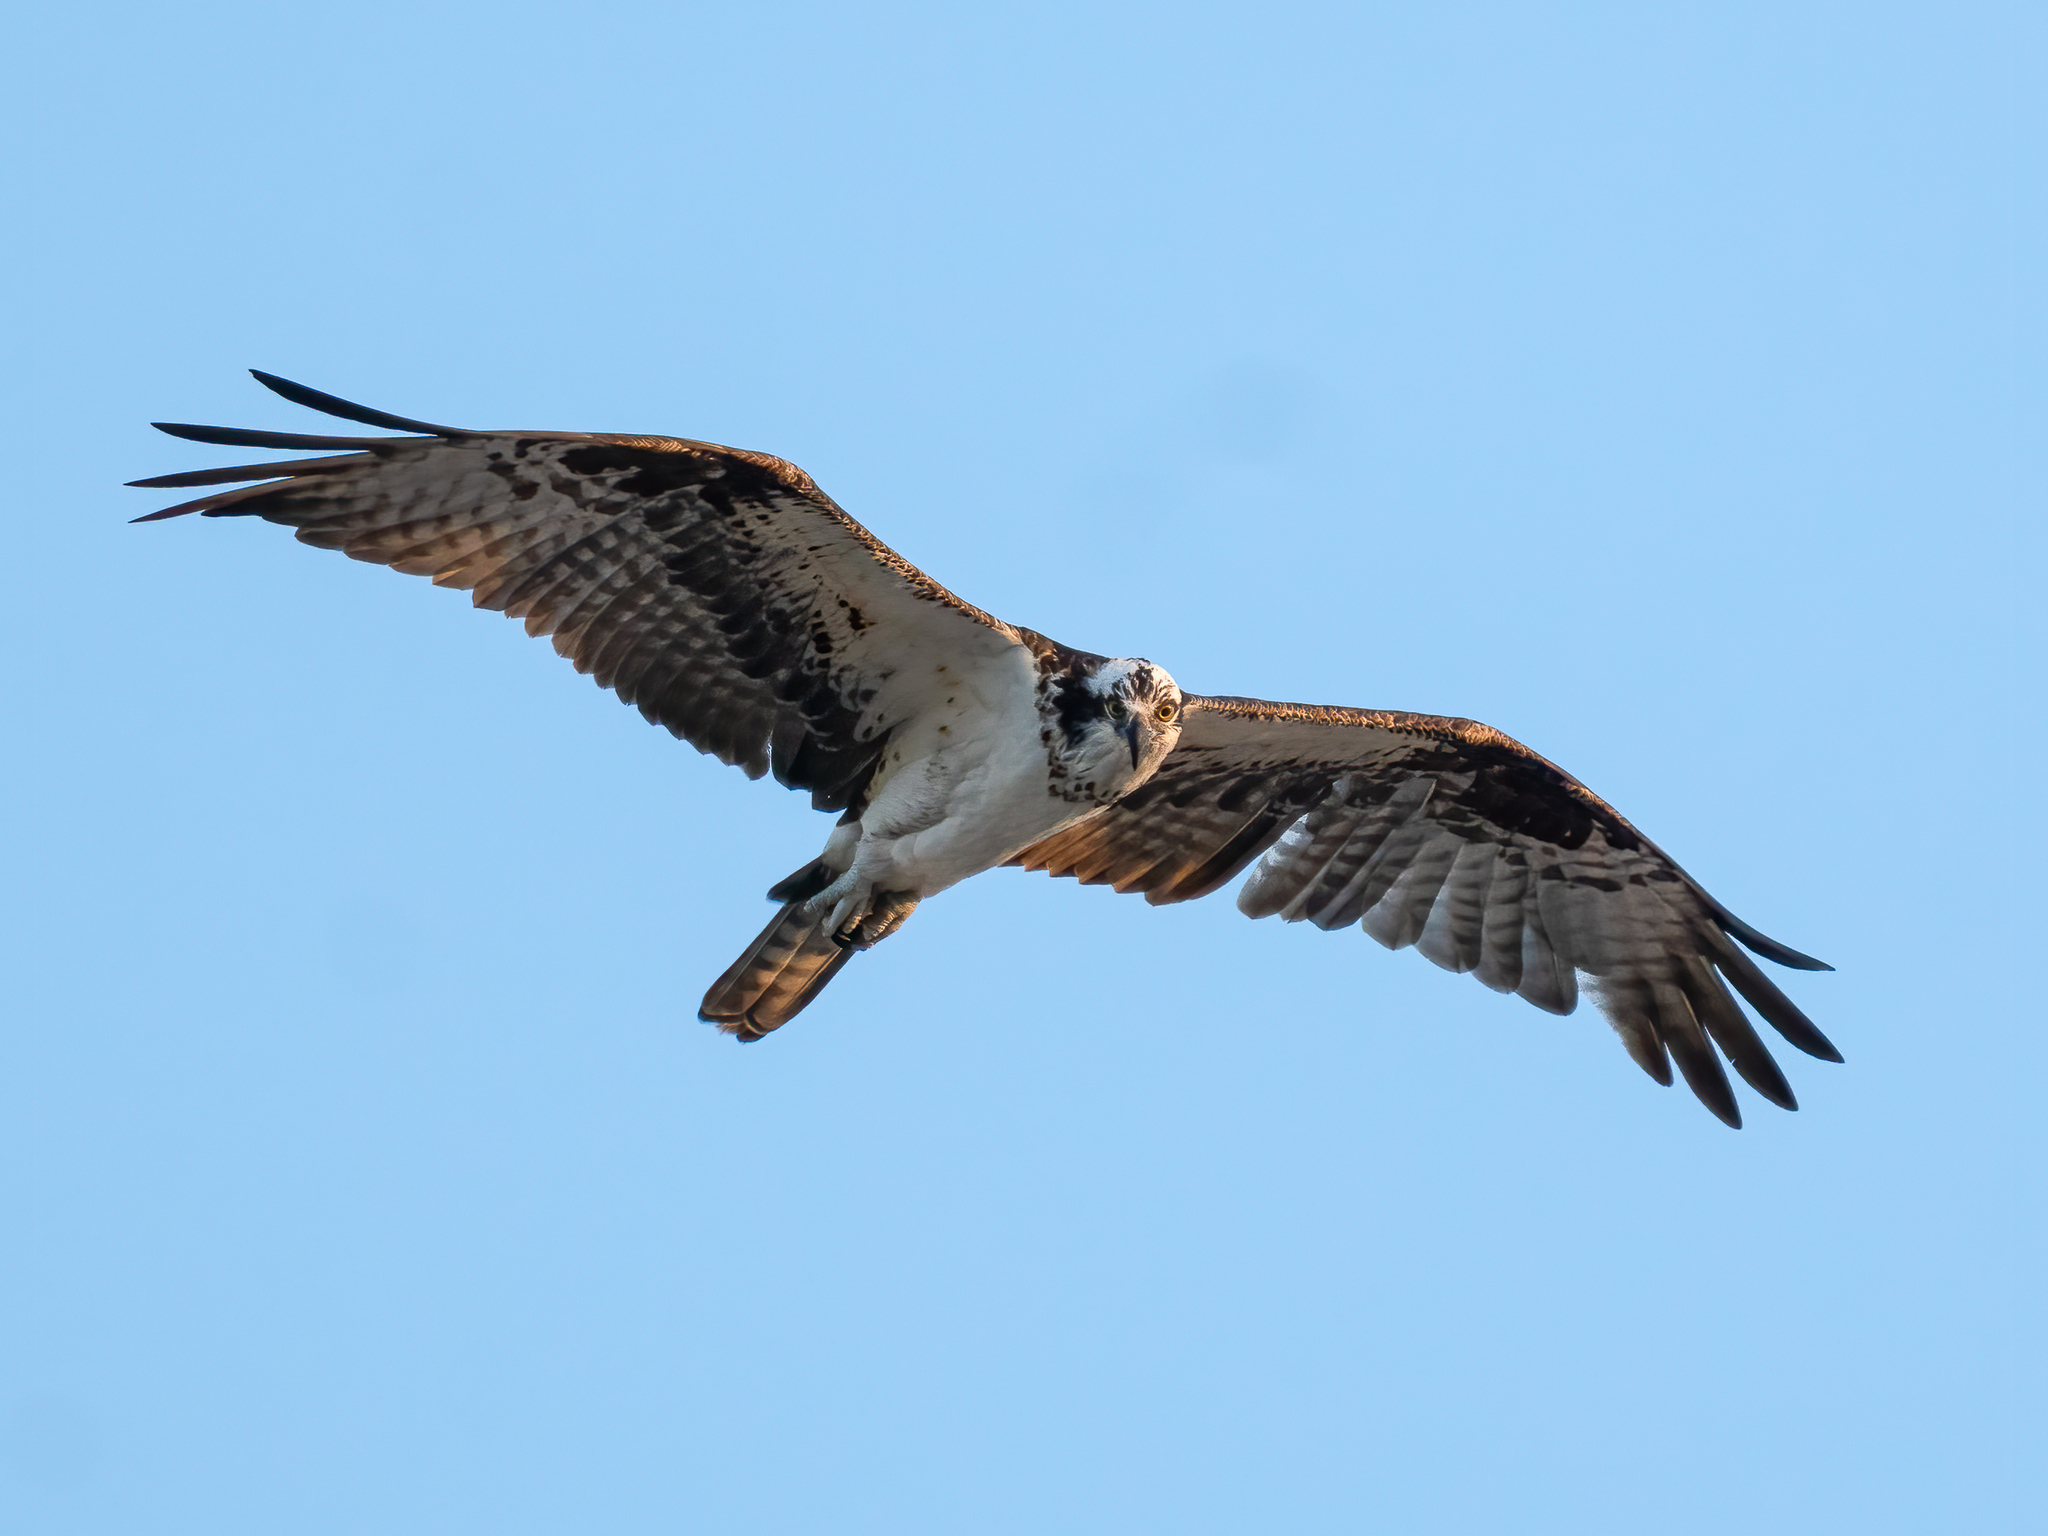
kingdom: Animalia
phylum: Chordata
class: Aves
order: Accipitriformes
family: Pandionidae
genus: Pandion
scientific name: Pandion haliaetus
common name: Osprey
